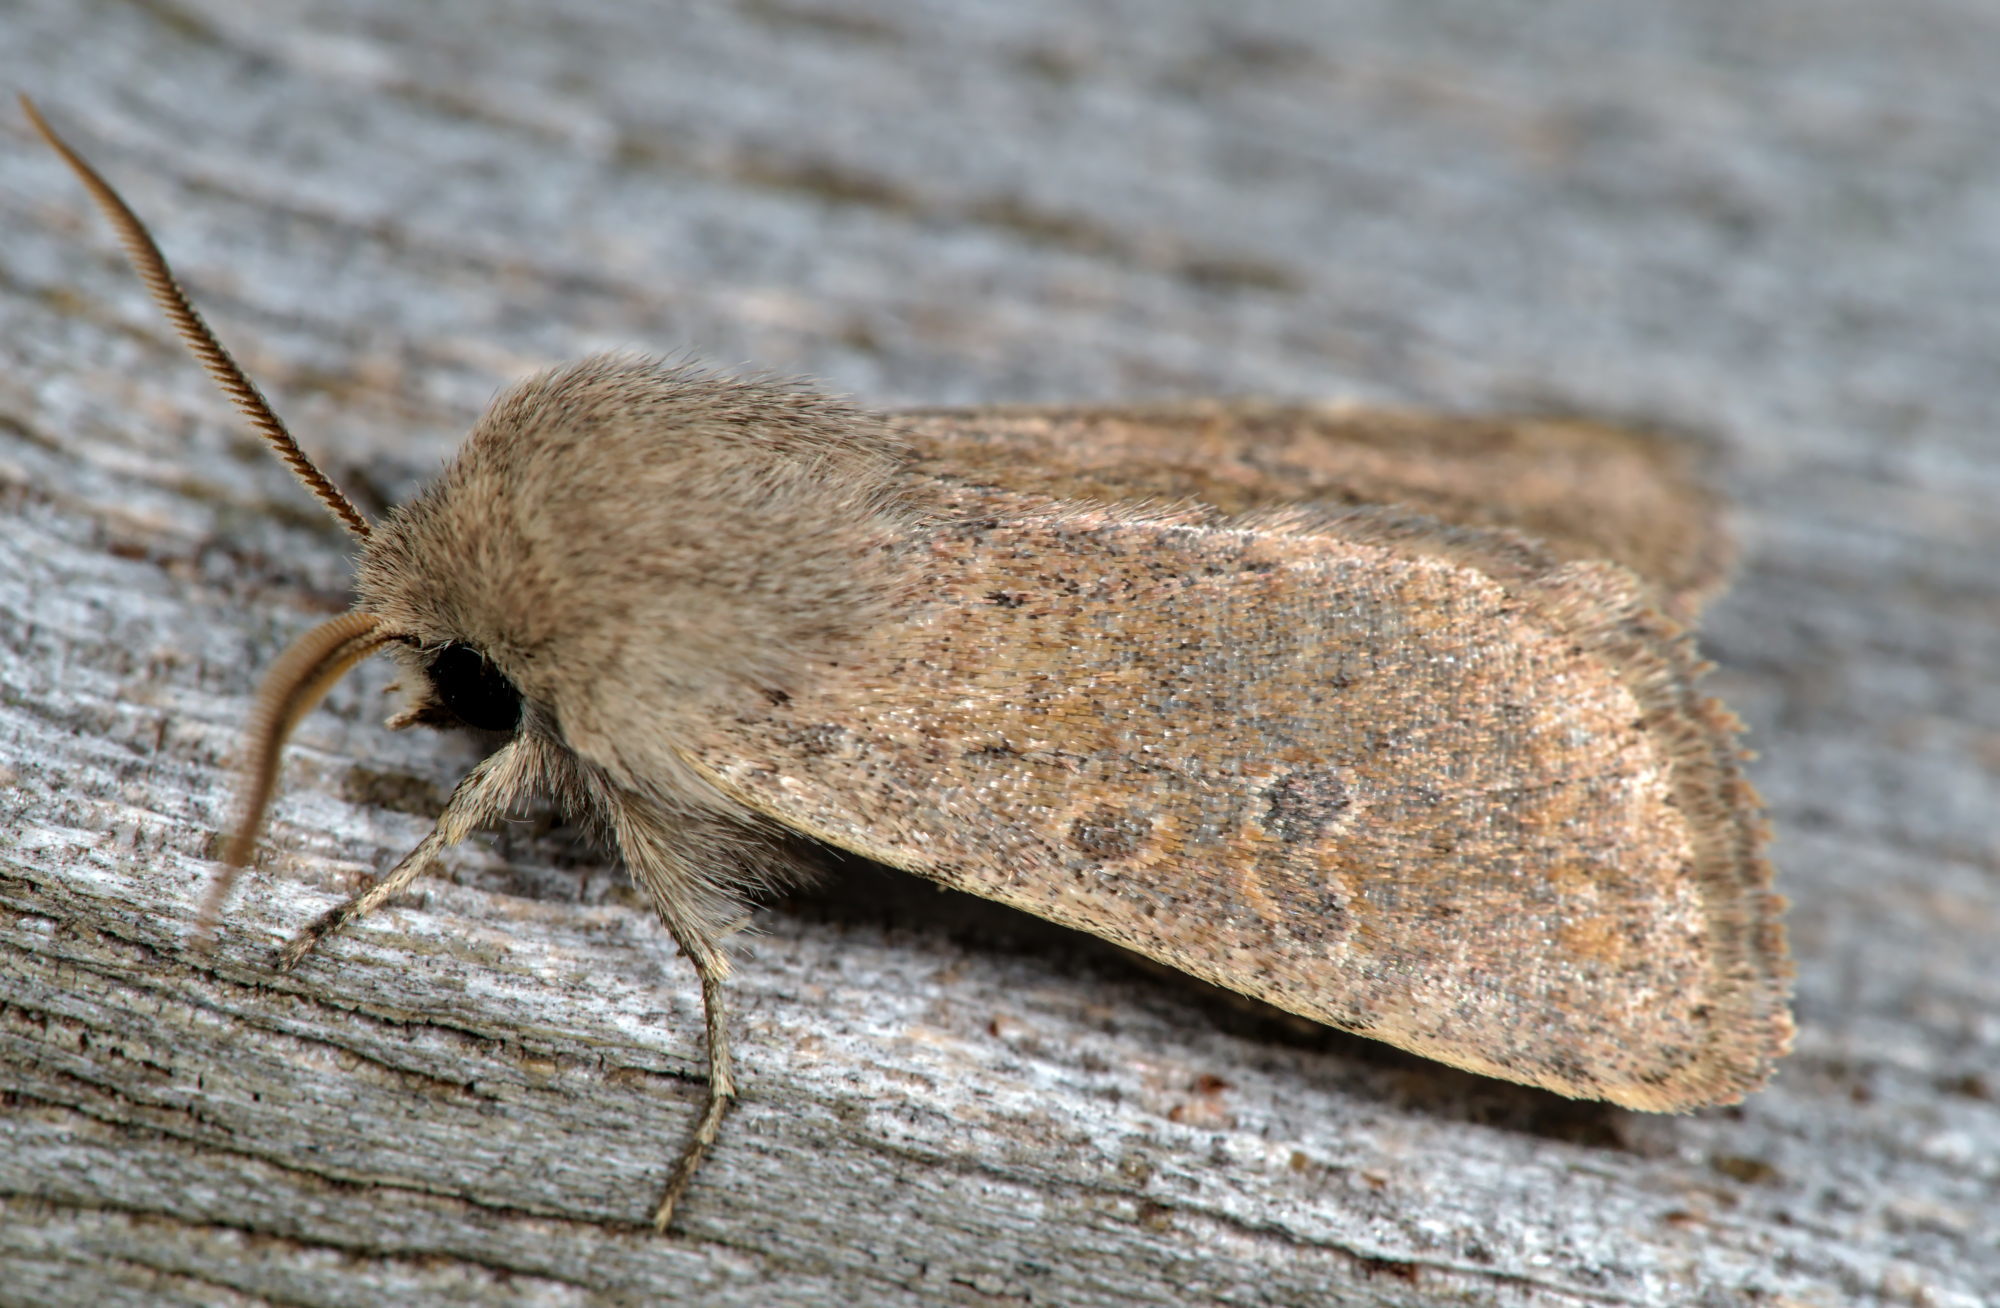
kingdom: Animalia
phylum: Arthropoda
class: Insecta
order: Lepidoptera
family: Noctuidae
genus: Orthosia
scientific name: Orthosia cruda
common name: Small quaker
